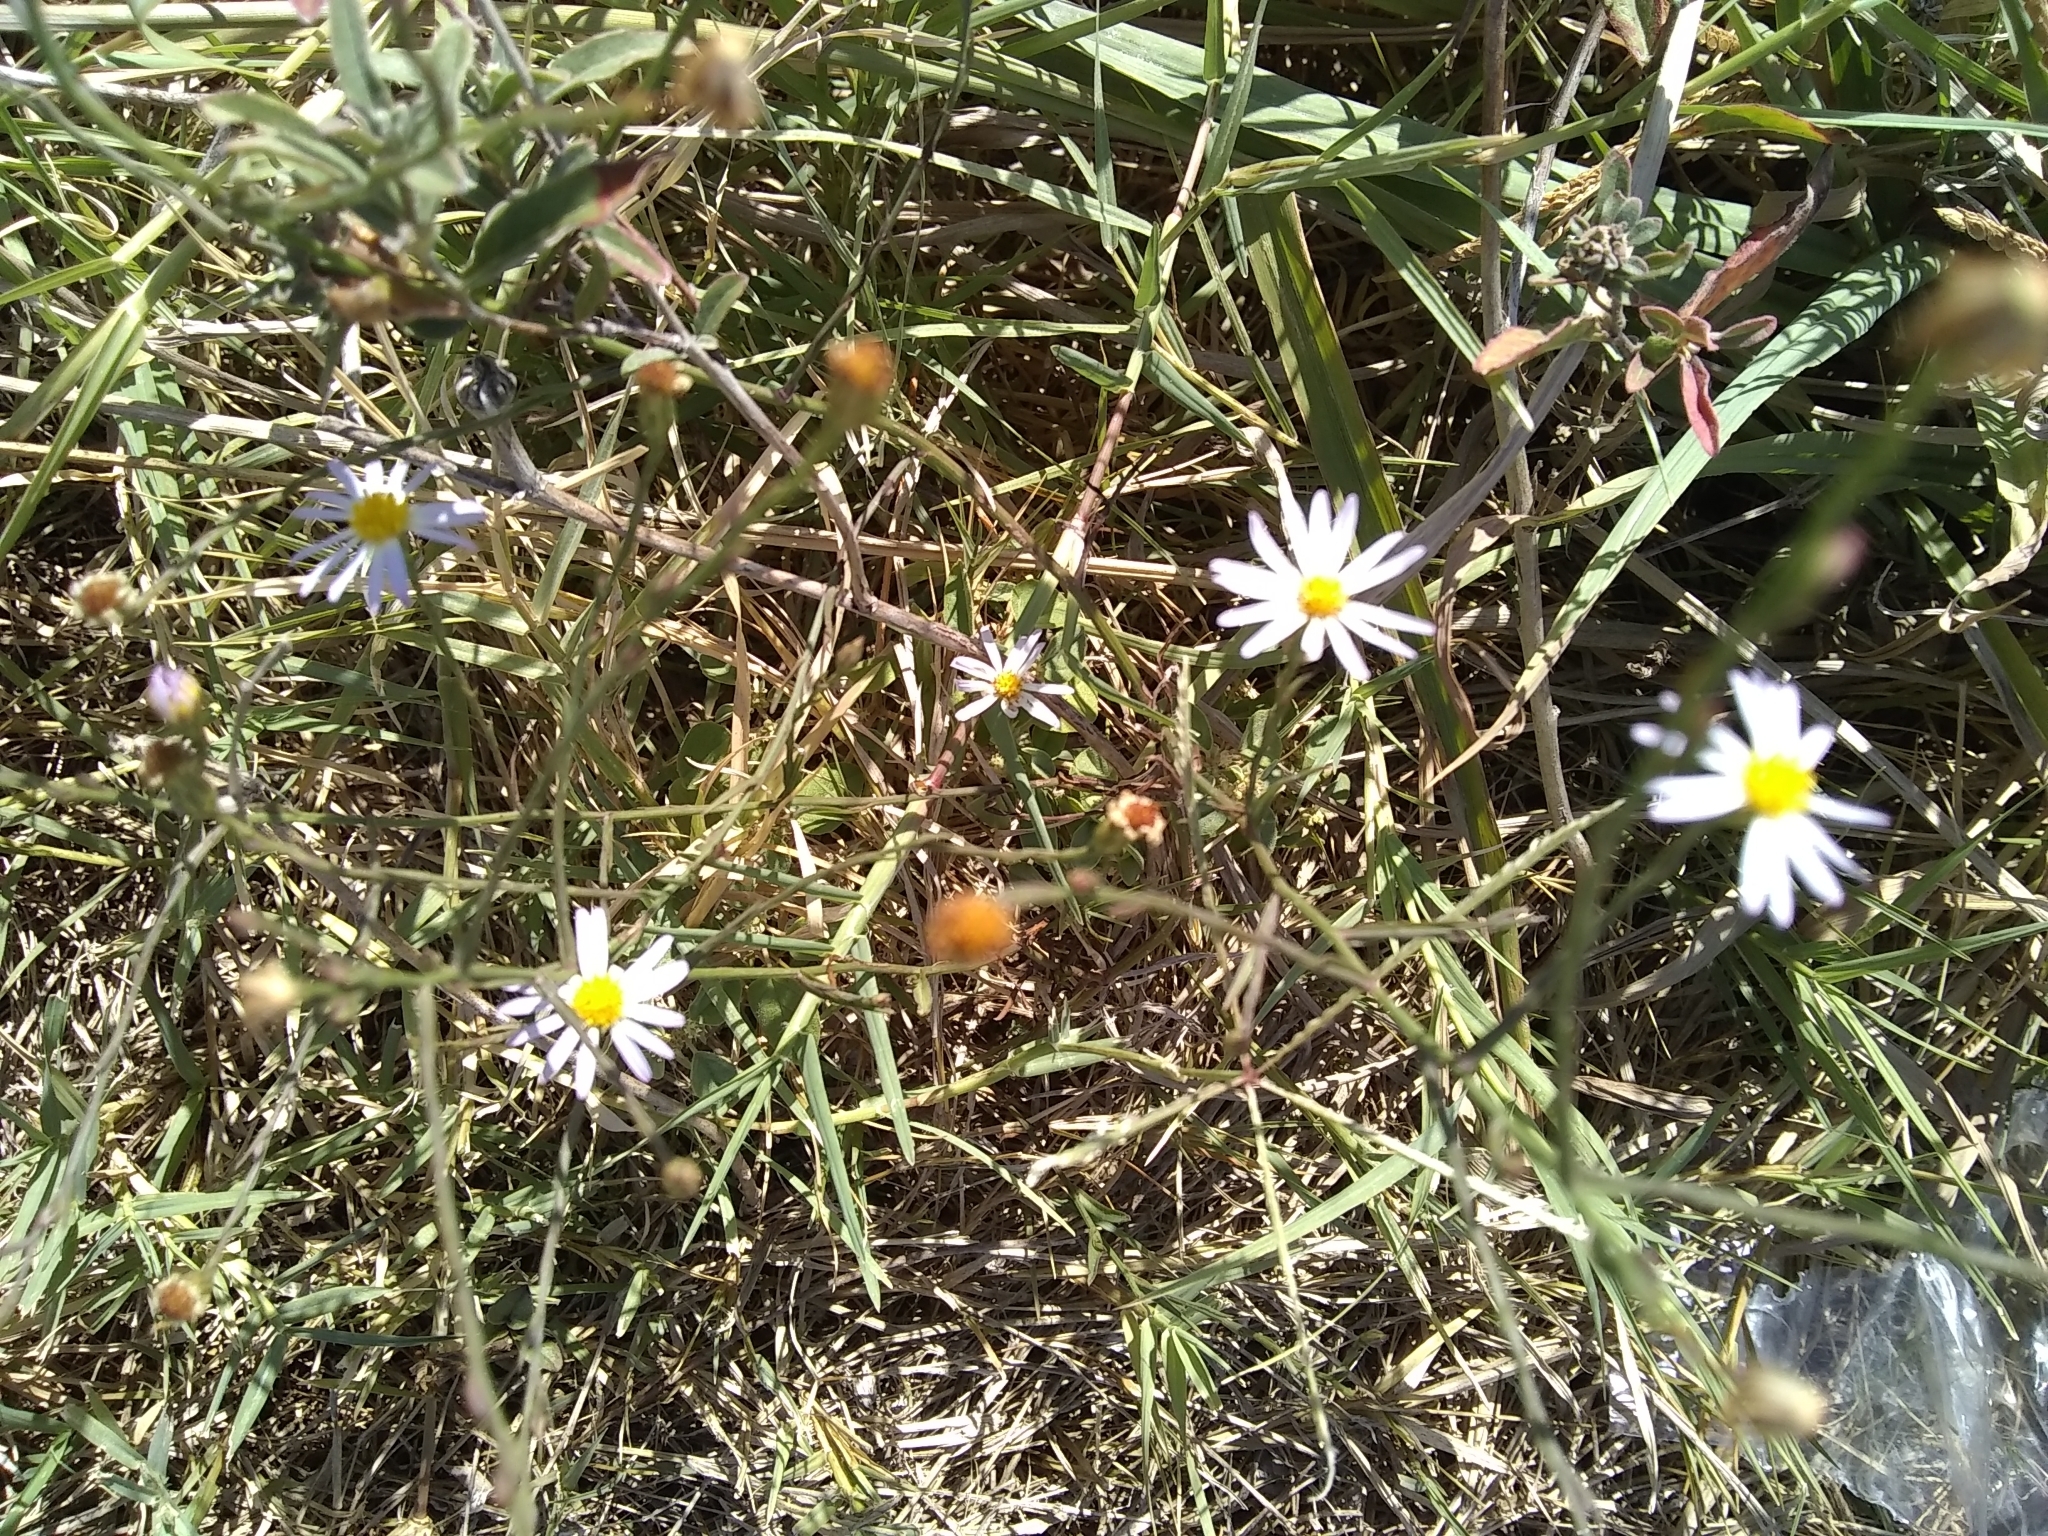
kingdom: Plantae
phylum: Tracheophyta
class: Magnoliopsida
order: Asterales
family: Asteraceae
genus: Symphyotrichum
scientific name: Symphyotrichum divaricatum
